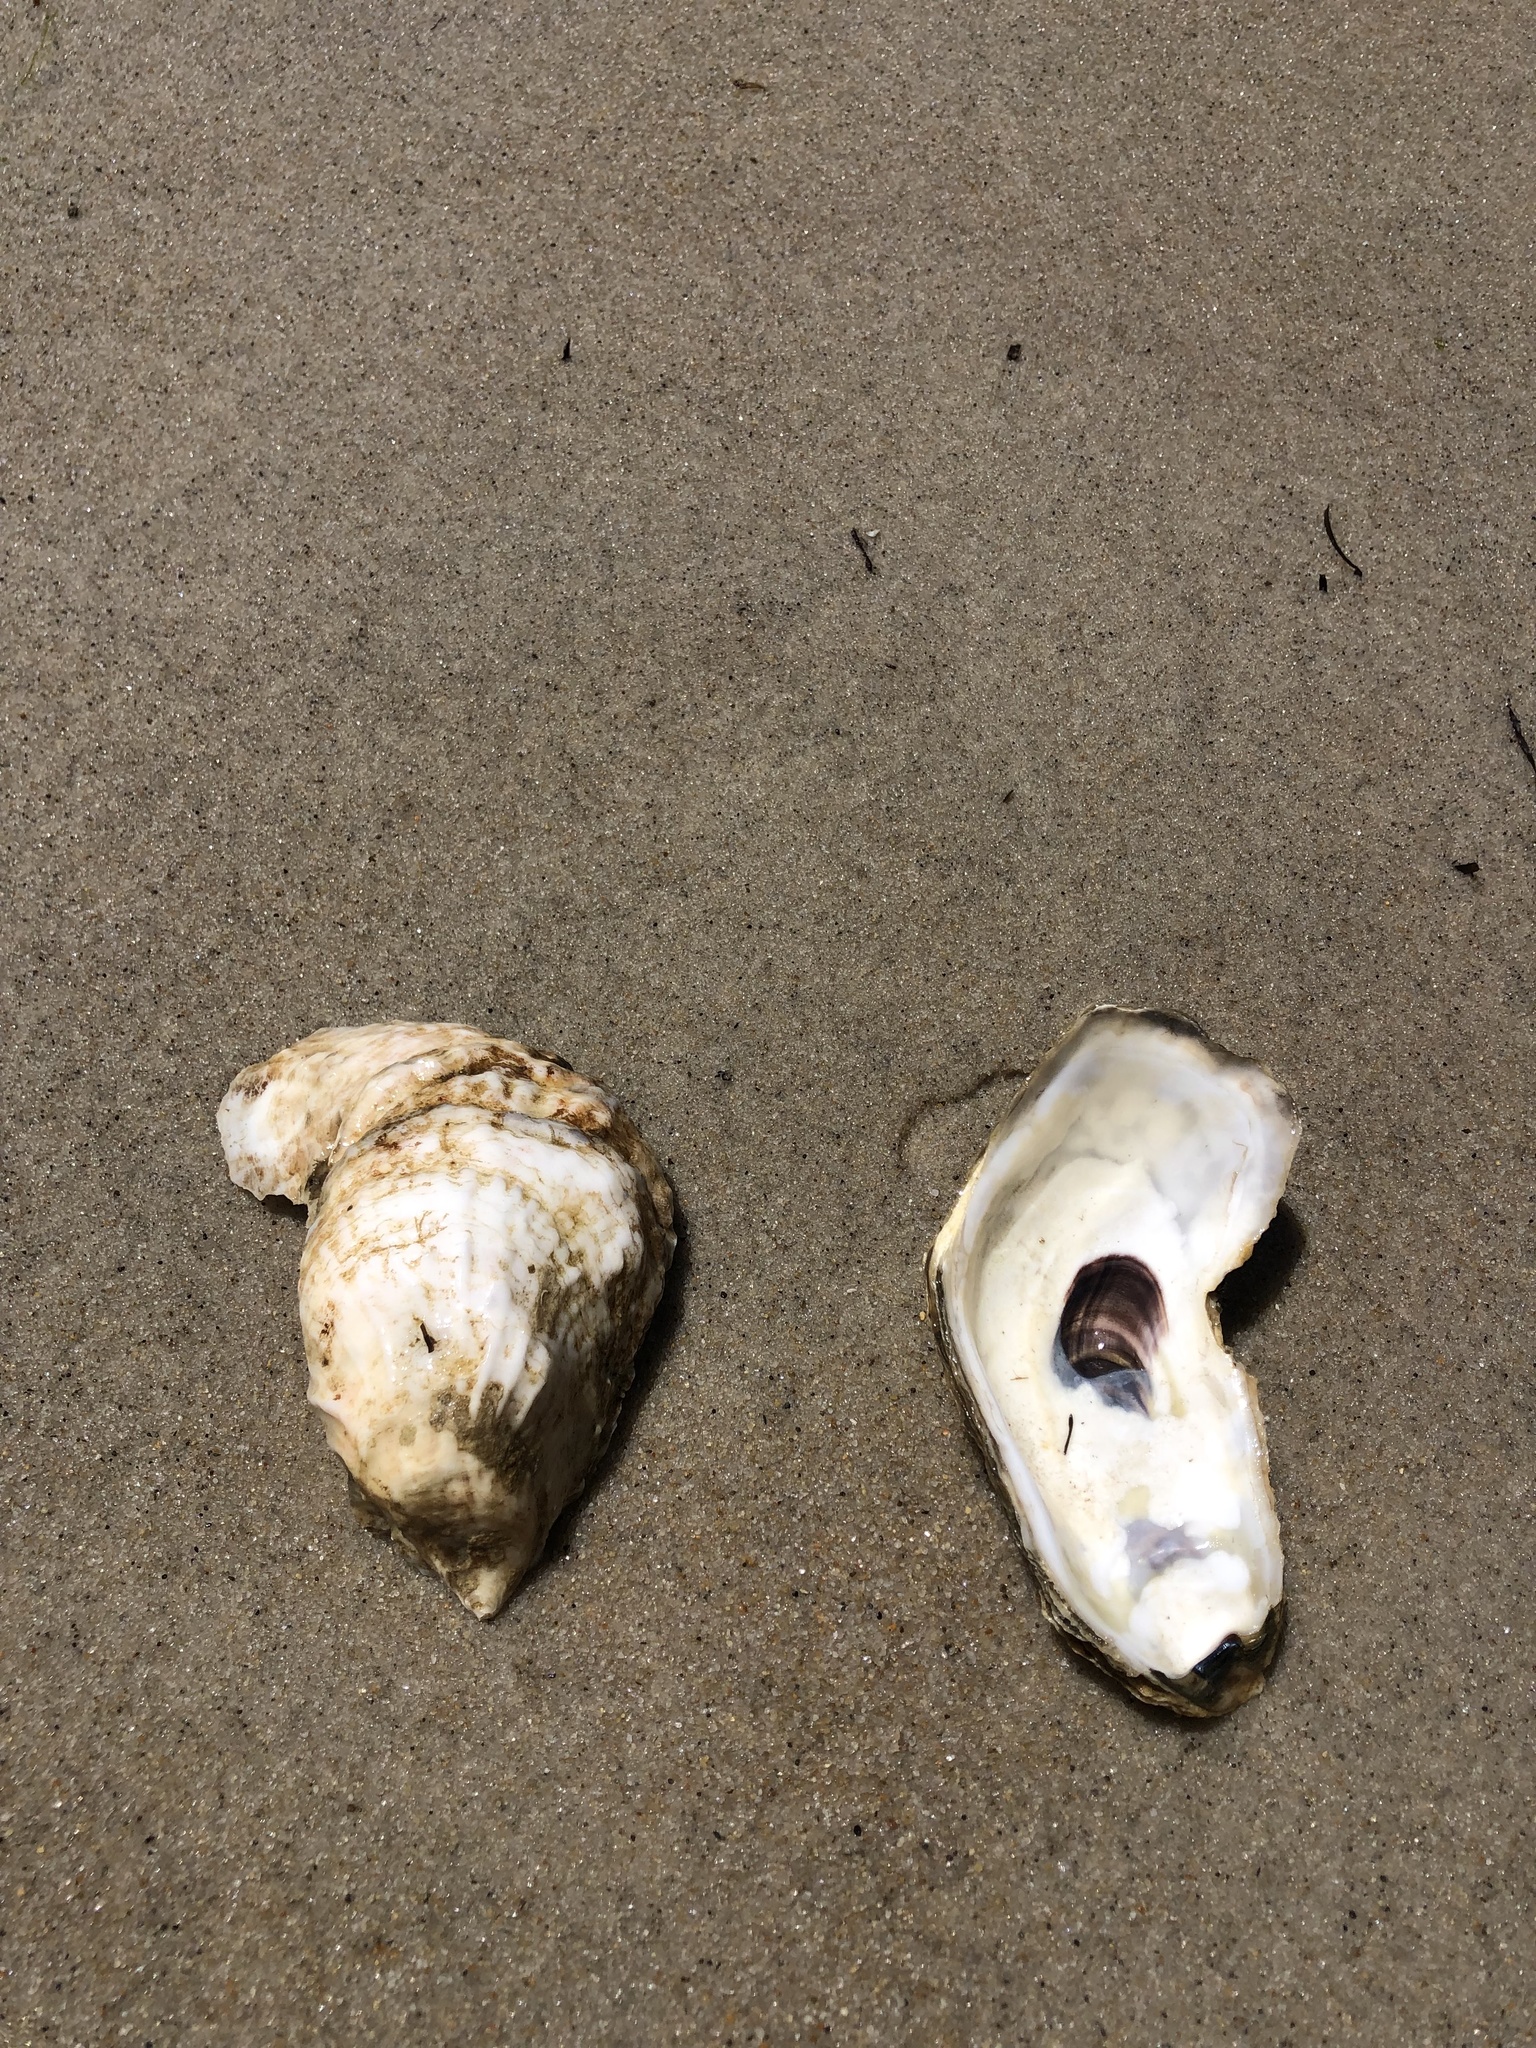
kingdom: Animalia
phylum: Mollusca
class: Bivalvia
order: Ostreida
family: Ostreidae
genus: Crassostrea
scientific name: Crassostrea virginica
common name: American oyster
